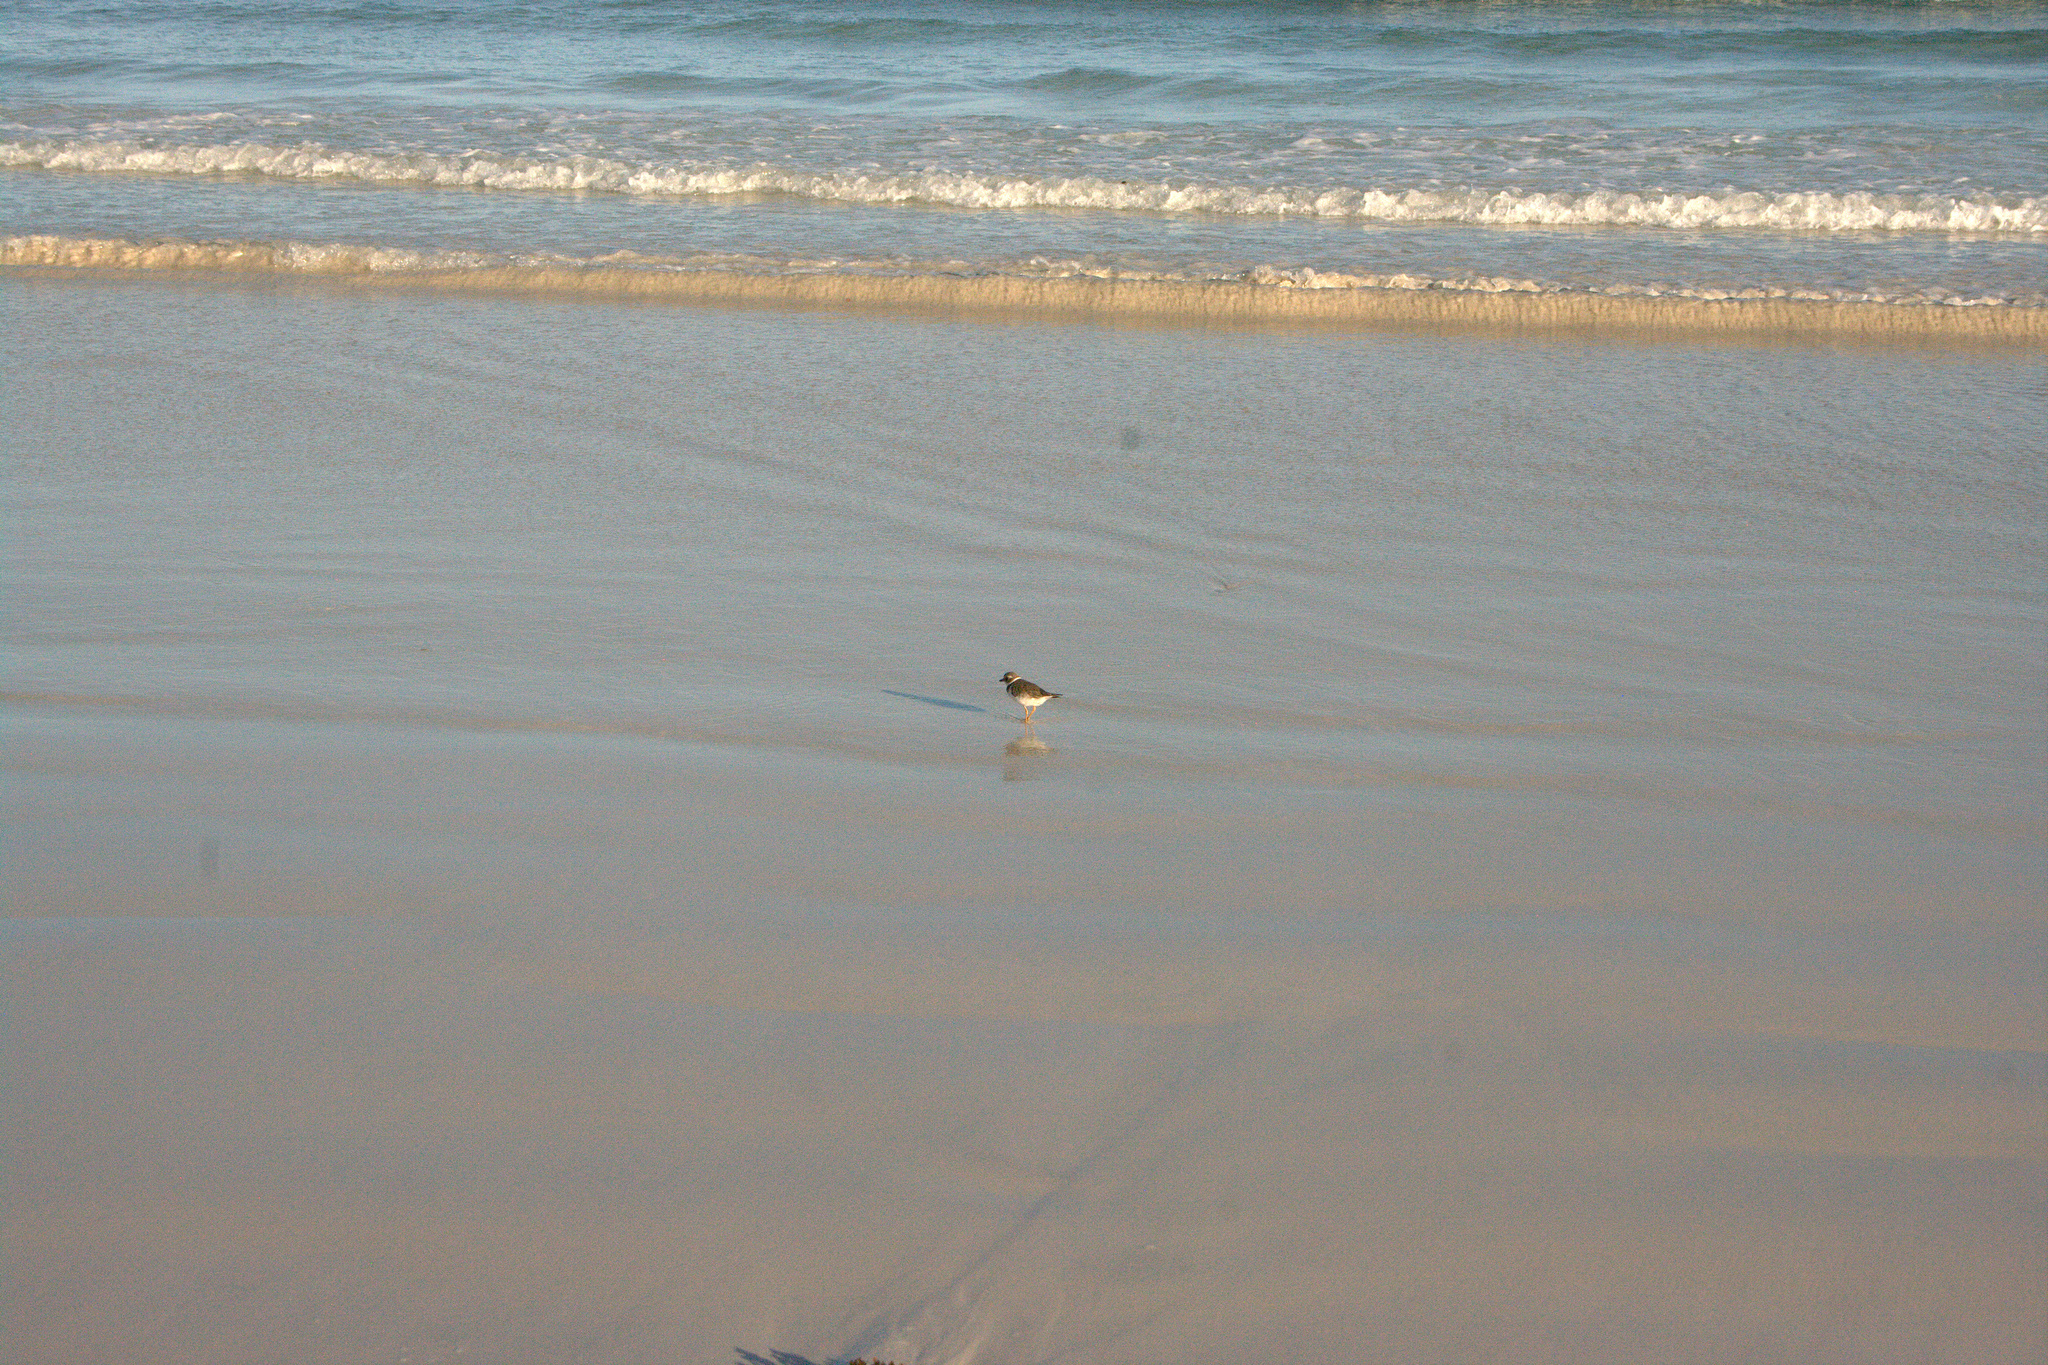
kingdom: Animalia
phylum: Chordata
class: Aves
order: Charadriiformes
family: Charadriidae
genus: Charadrius
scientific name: Charadrius semipalmatus
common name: Semipalmated plover
